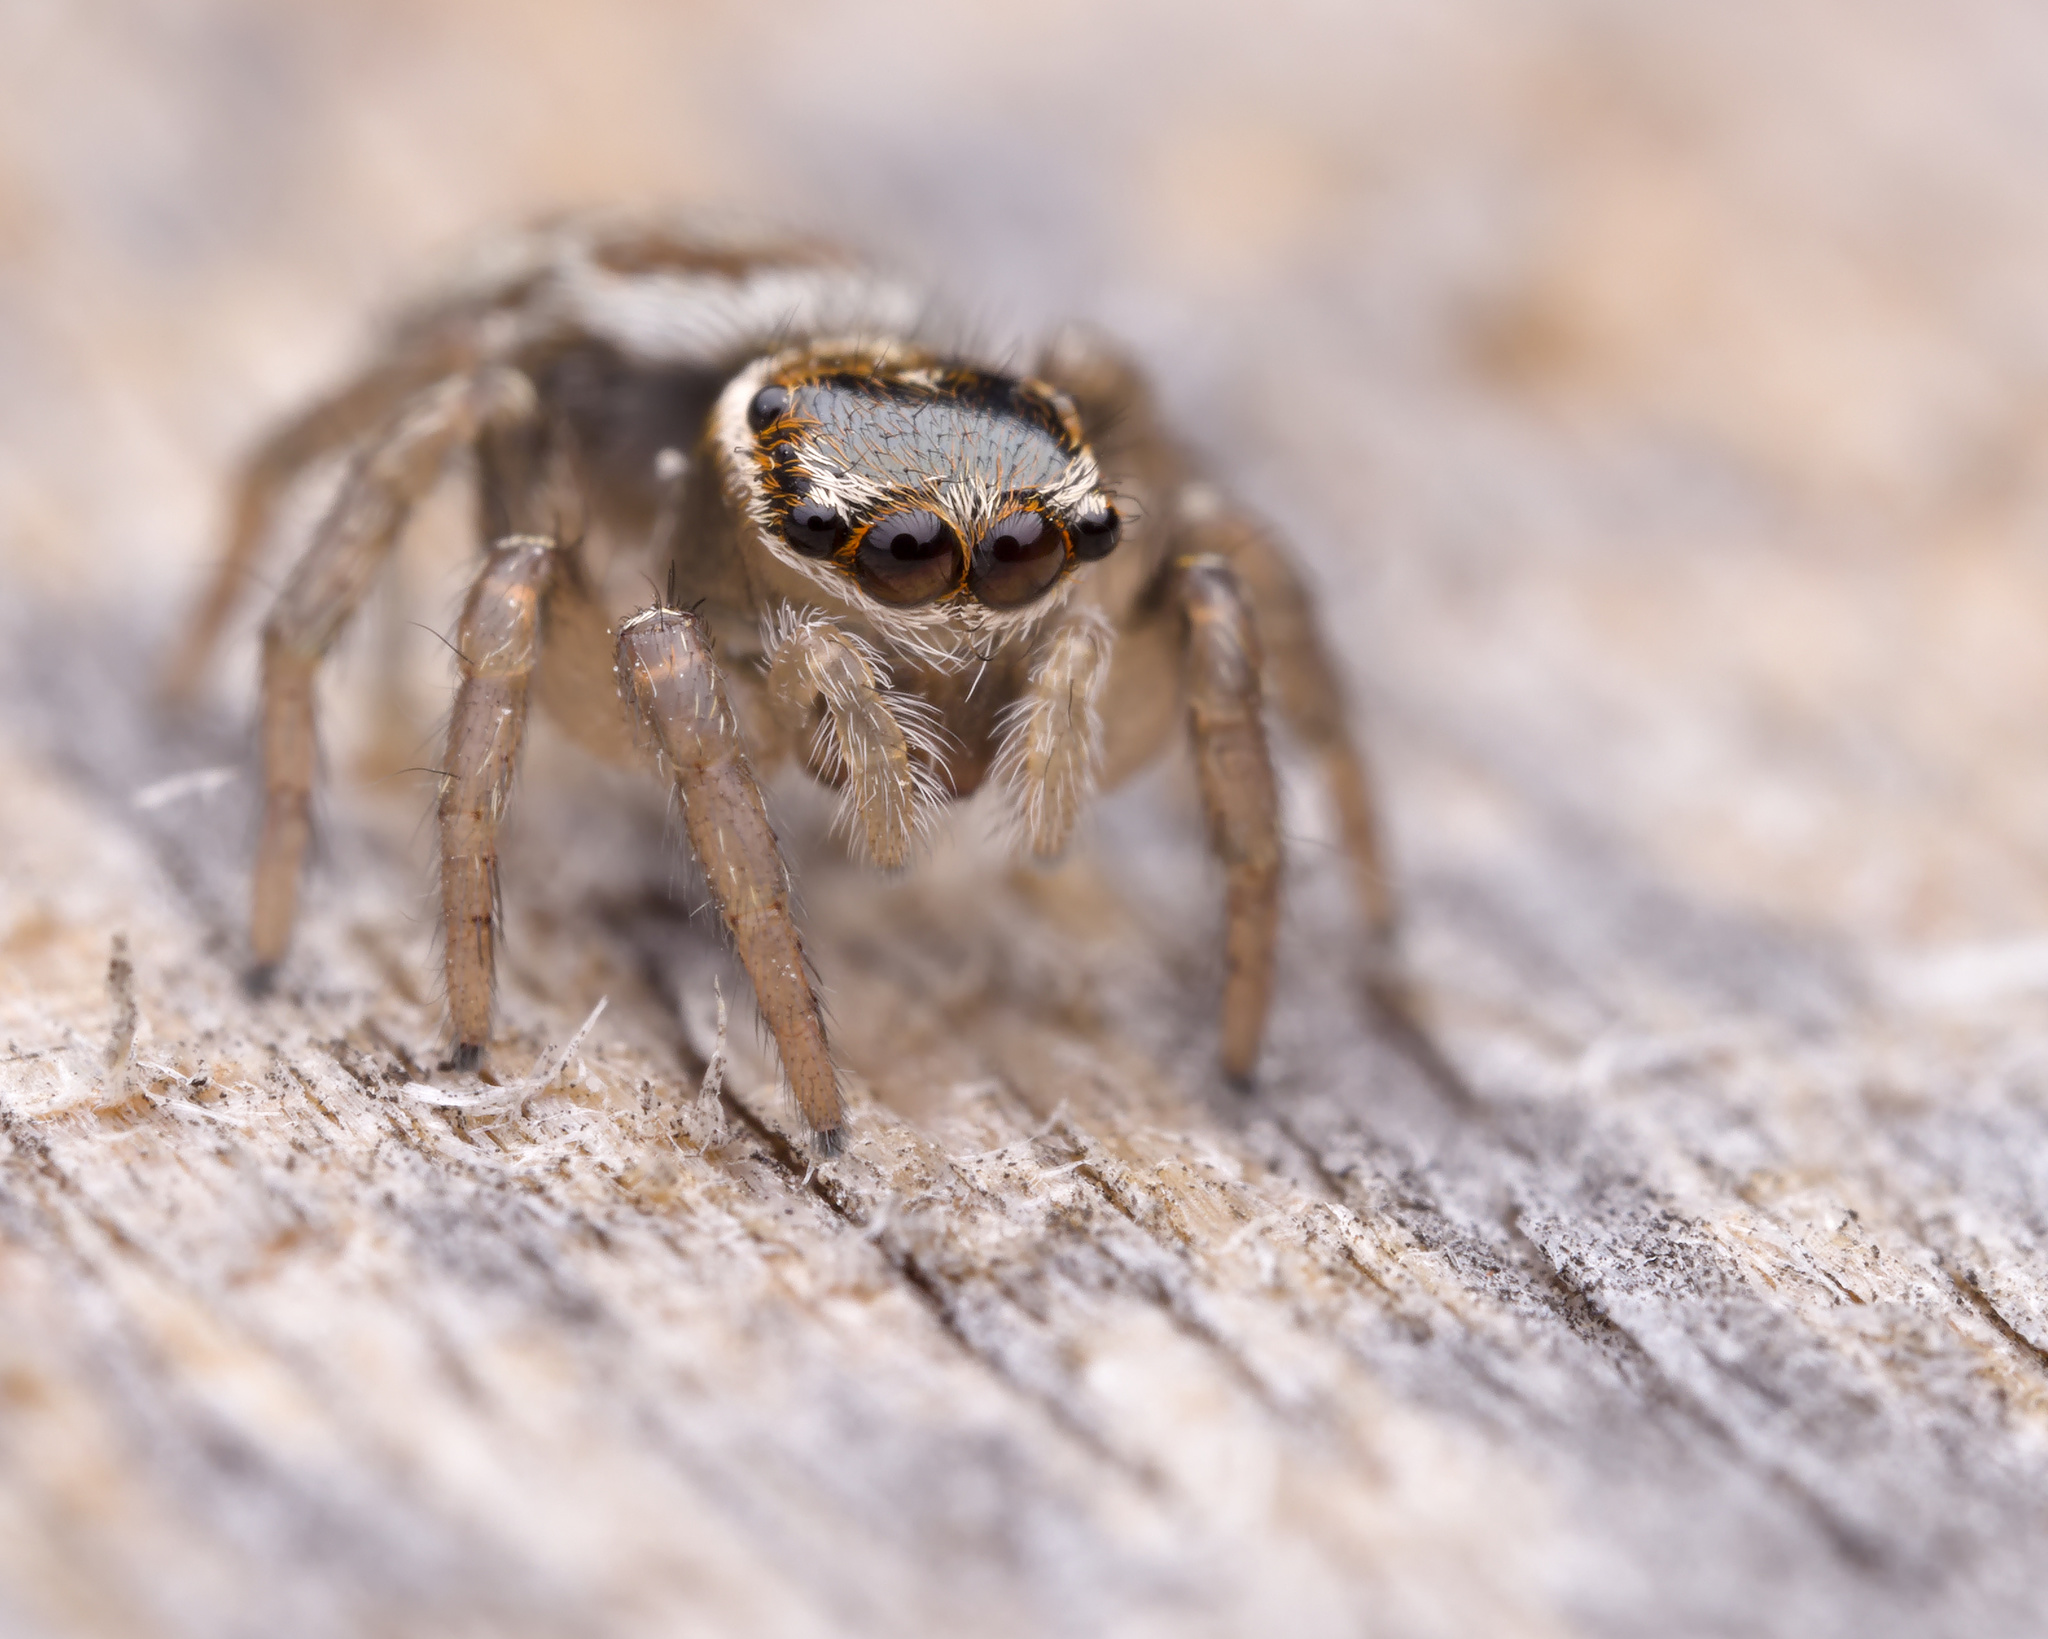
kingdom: Animalia
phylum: Arthropoda
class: Arachnida
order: Araneae
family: Salticidae
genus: Maratus
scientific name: Maratus griseus
